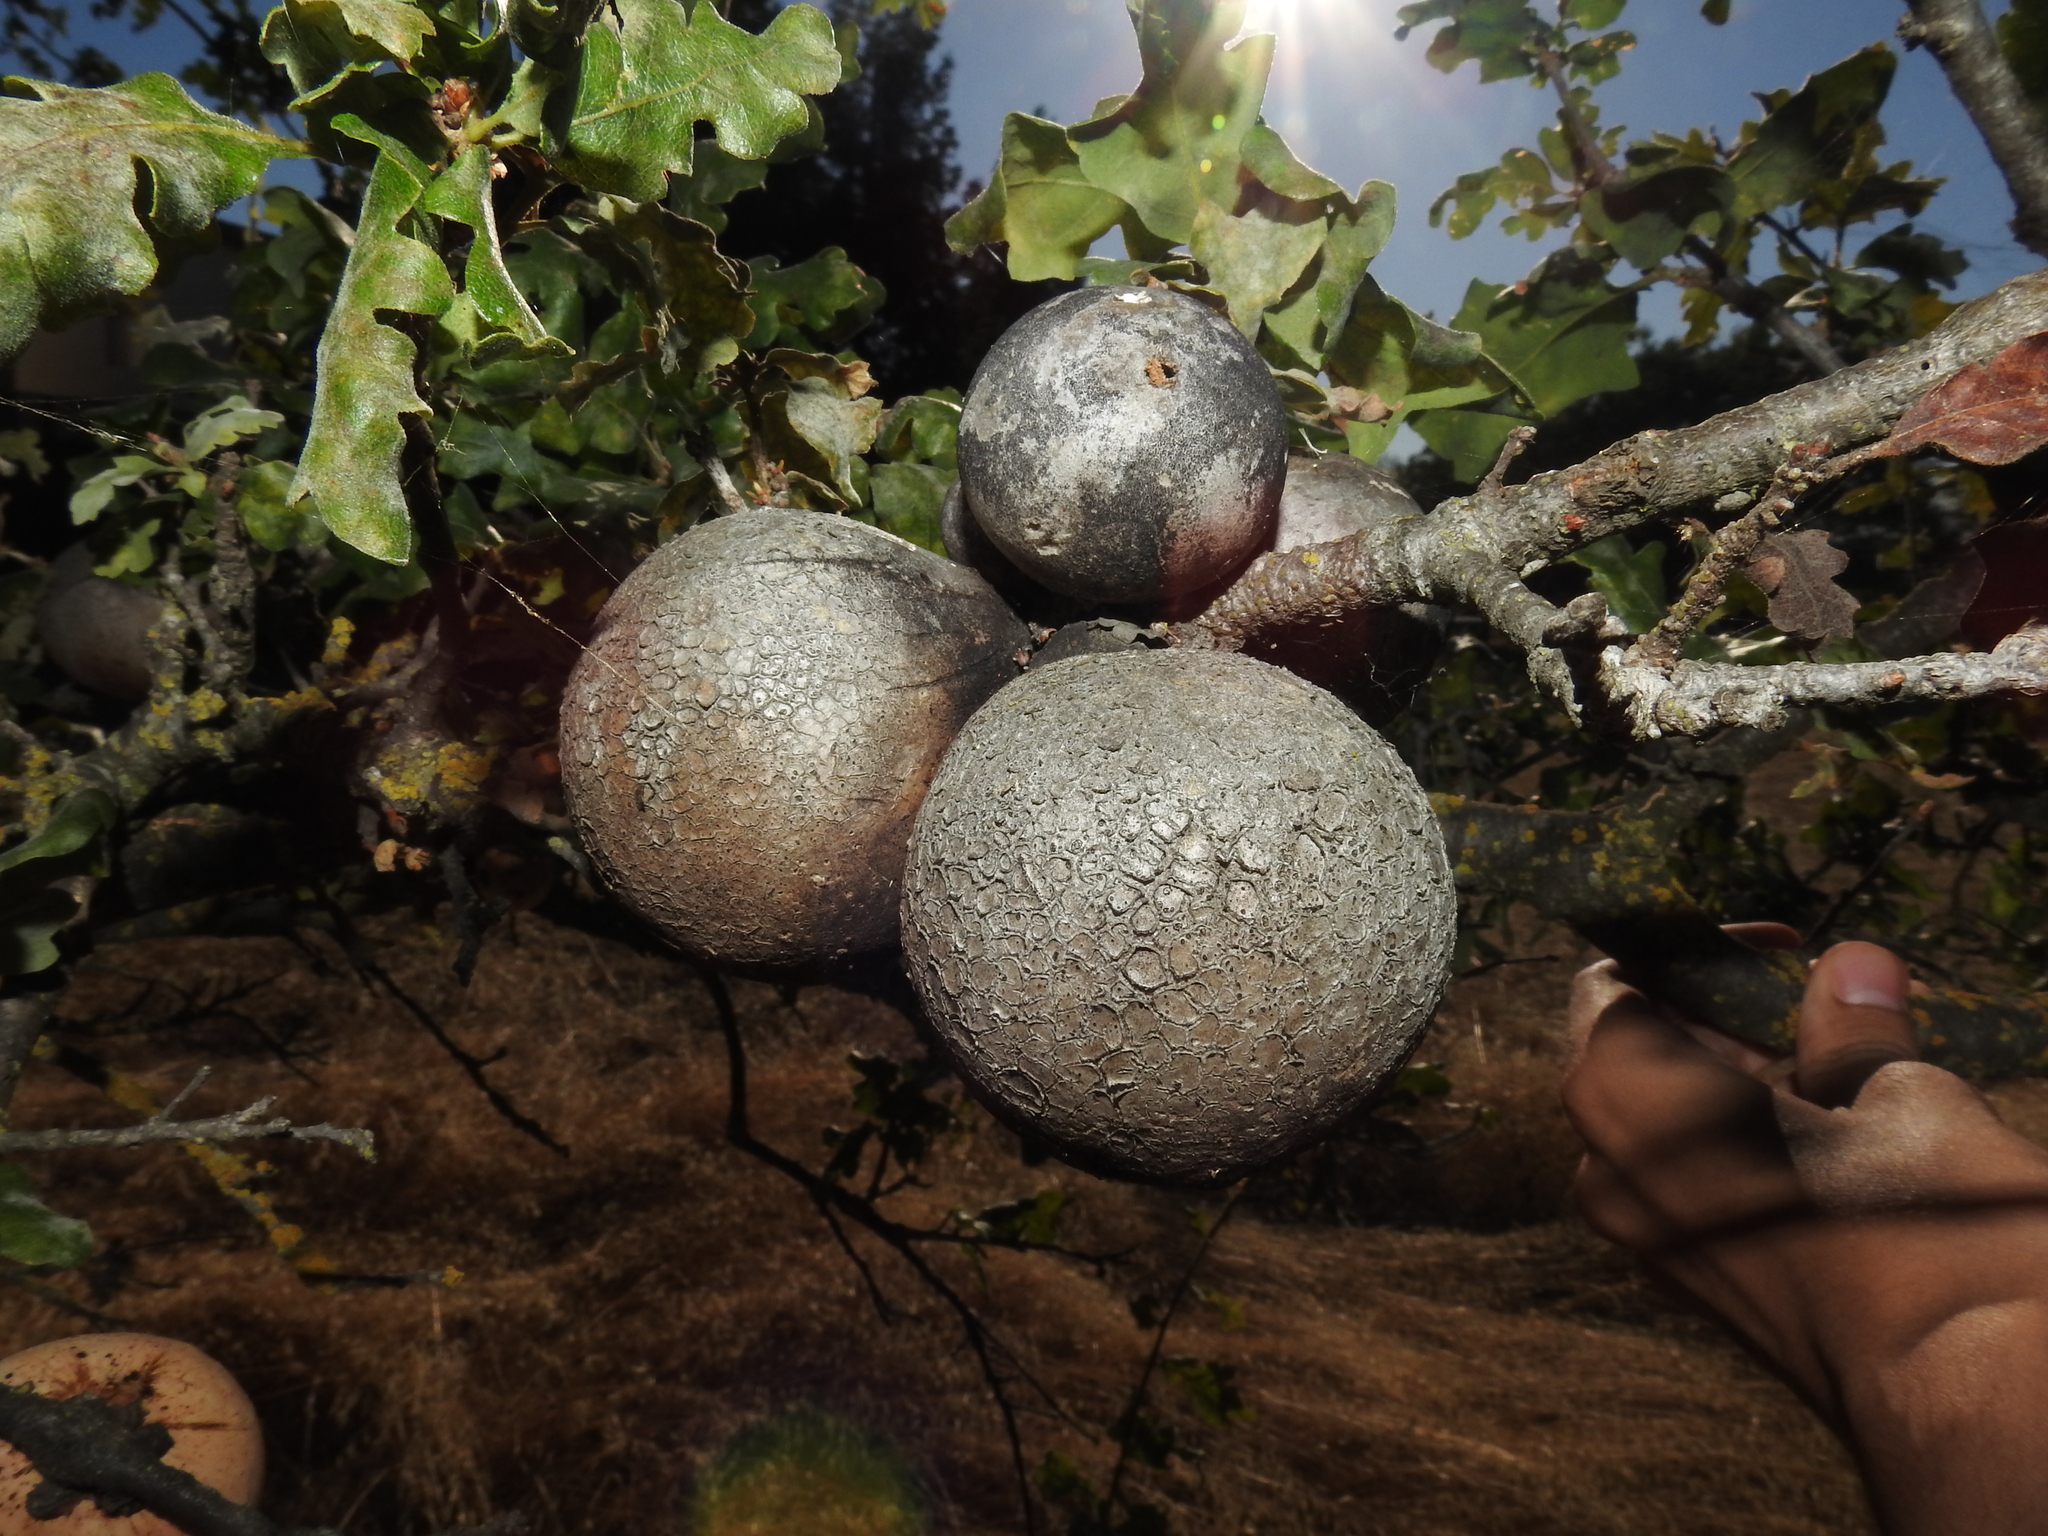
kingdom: Animalia
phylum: Arthropoda
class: Insecta
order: Hymenoptera
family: Cynipidae
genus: Andricus
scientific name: Andricus quercuscalifornicus
